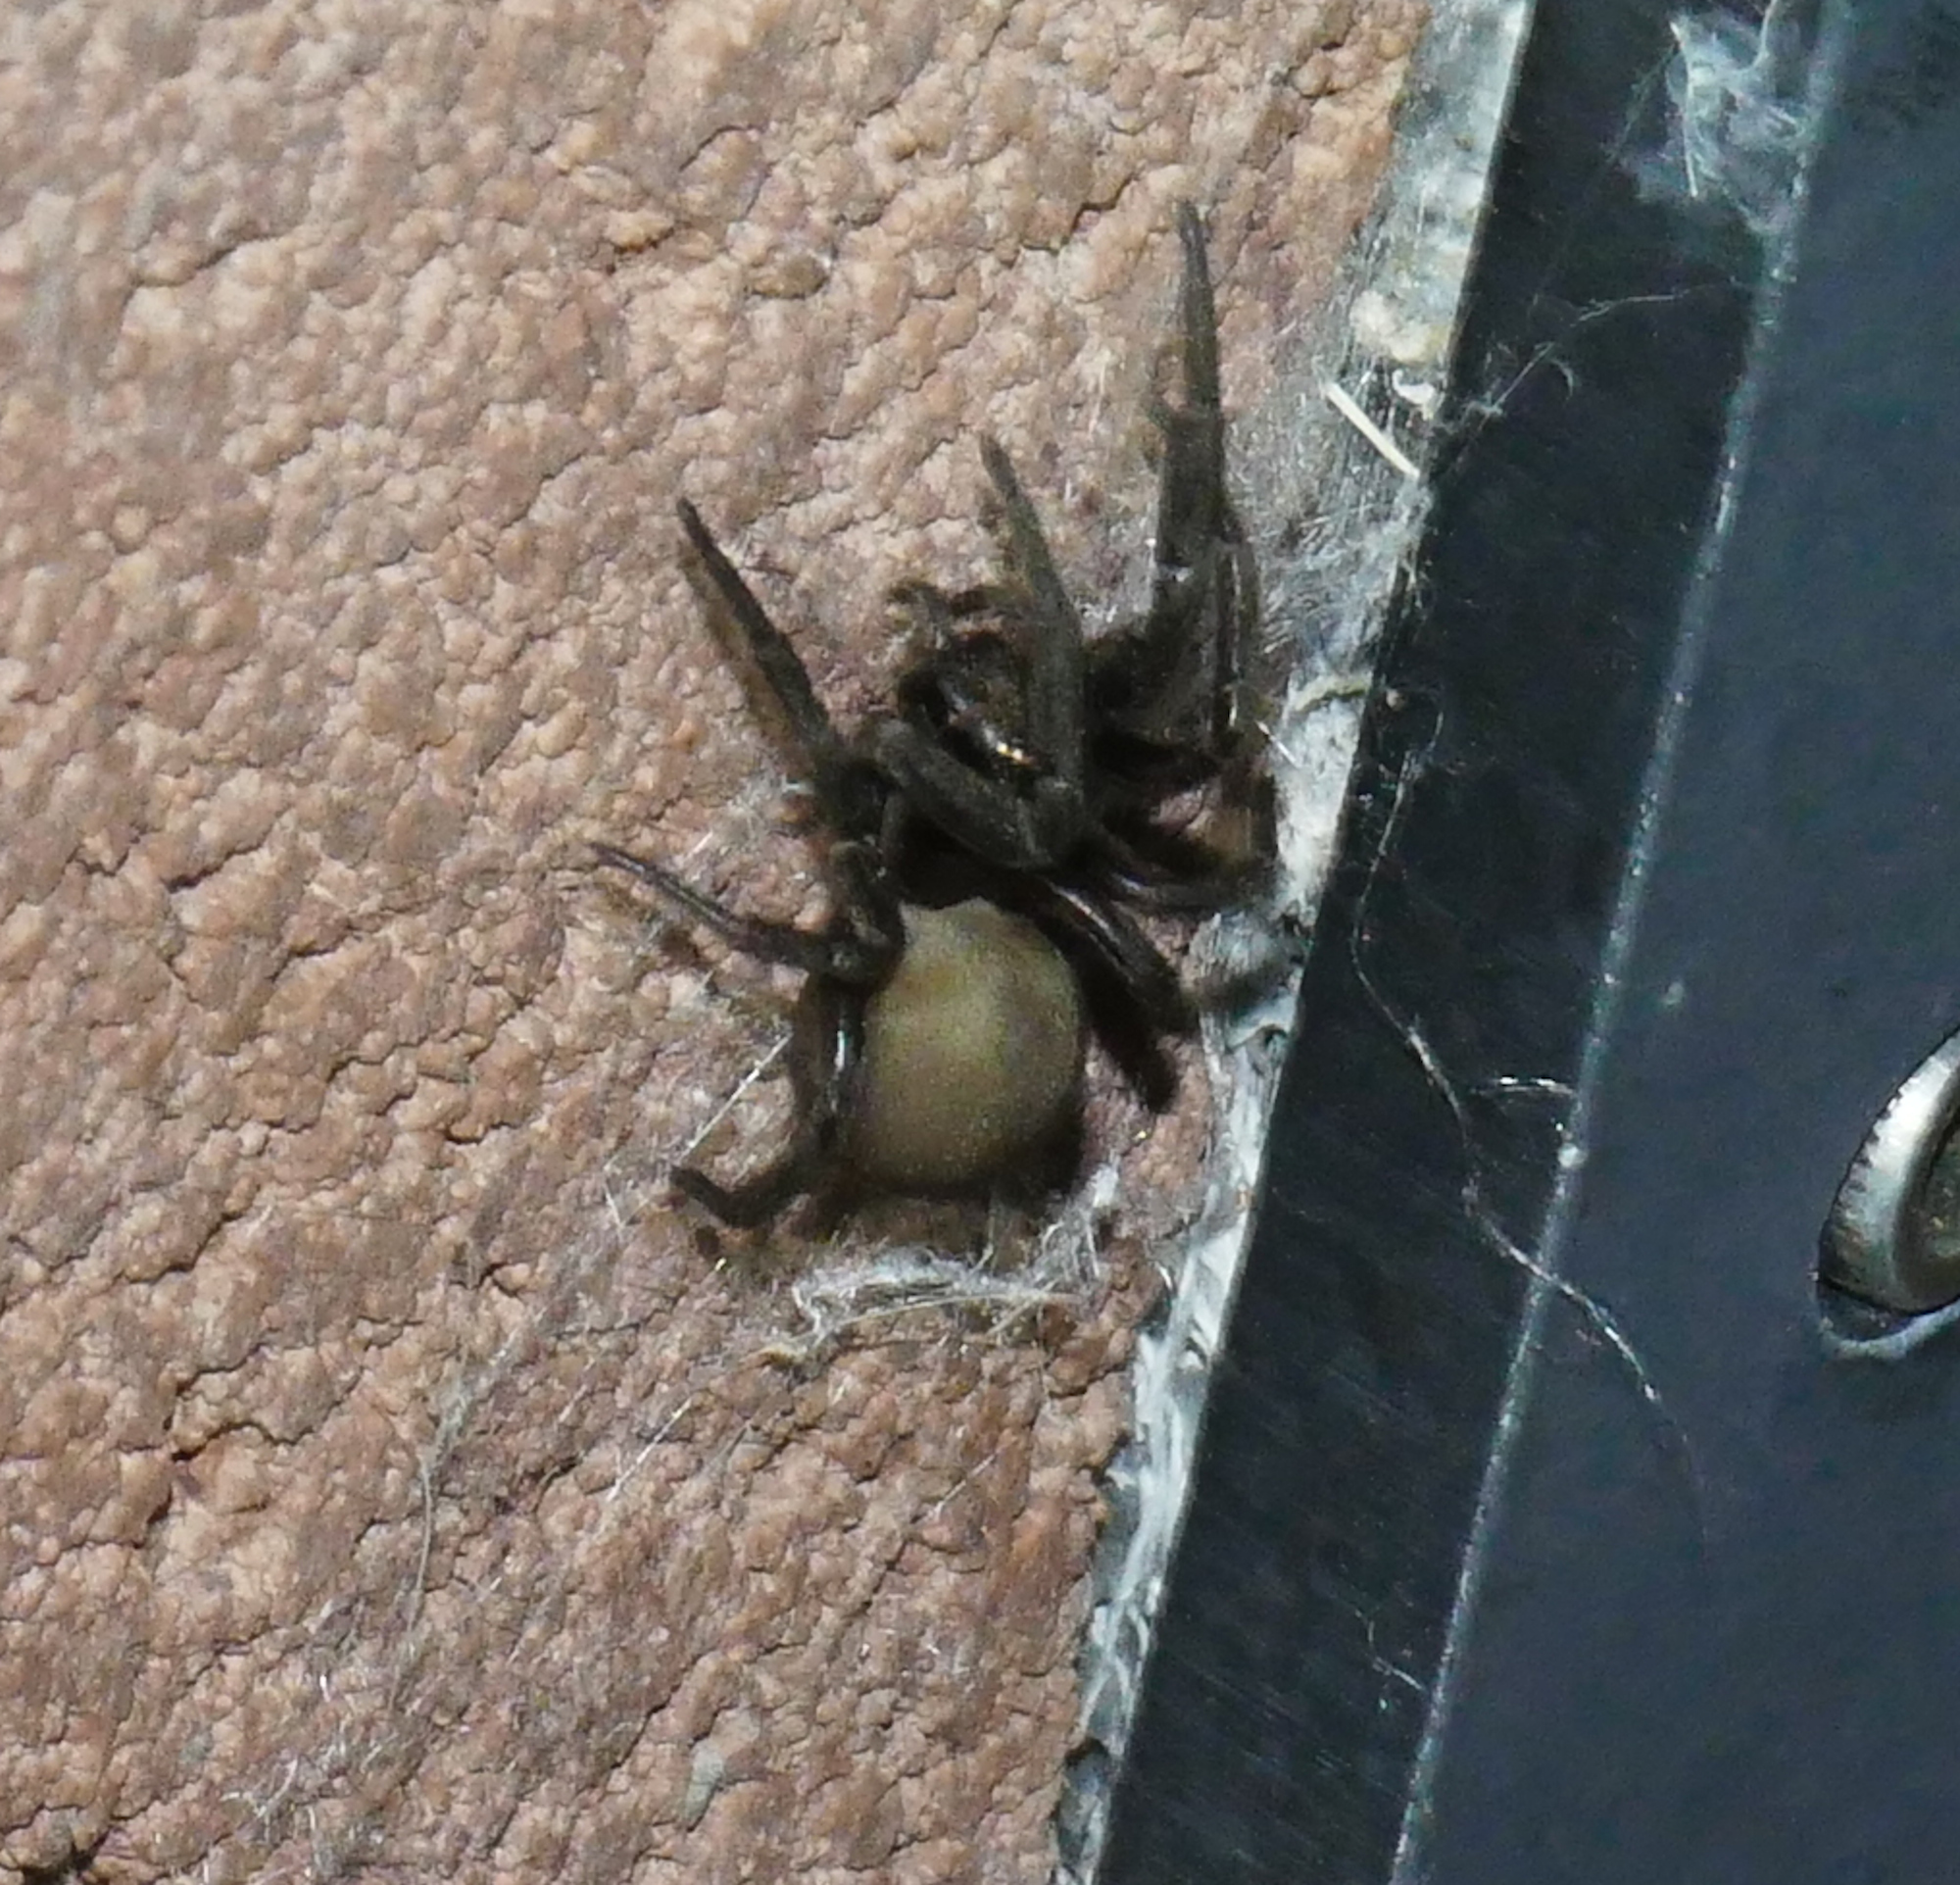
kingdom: Animalia
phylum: Arthropoda
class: Arachnida
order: Araneae
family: Filistatidae
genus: Kukulcania
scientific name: Kukulcania arizonica
